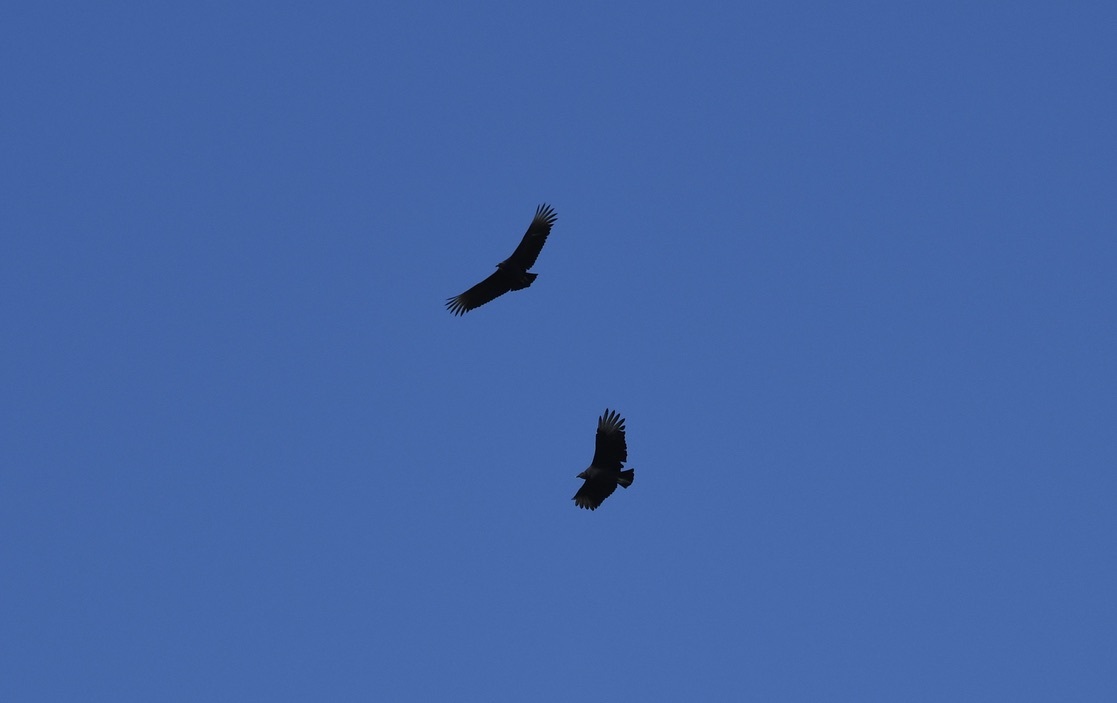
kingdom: Animalia
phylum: Chordata
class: Aves
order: Accipitriformes
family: Cathartidae
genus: Coragyps
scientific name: Coragyps atratus
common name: Black vulture
